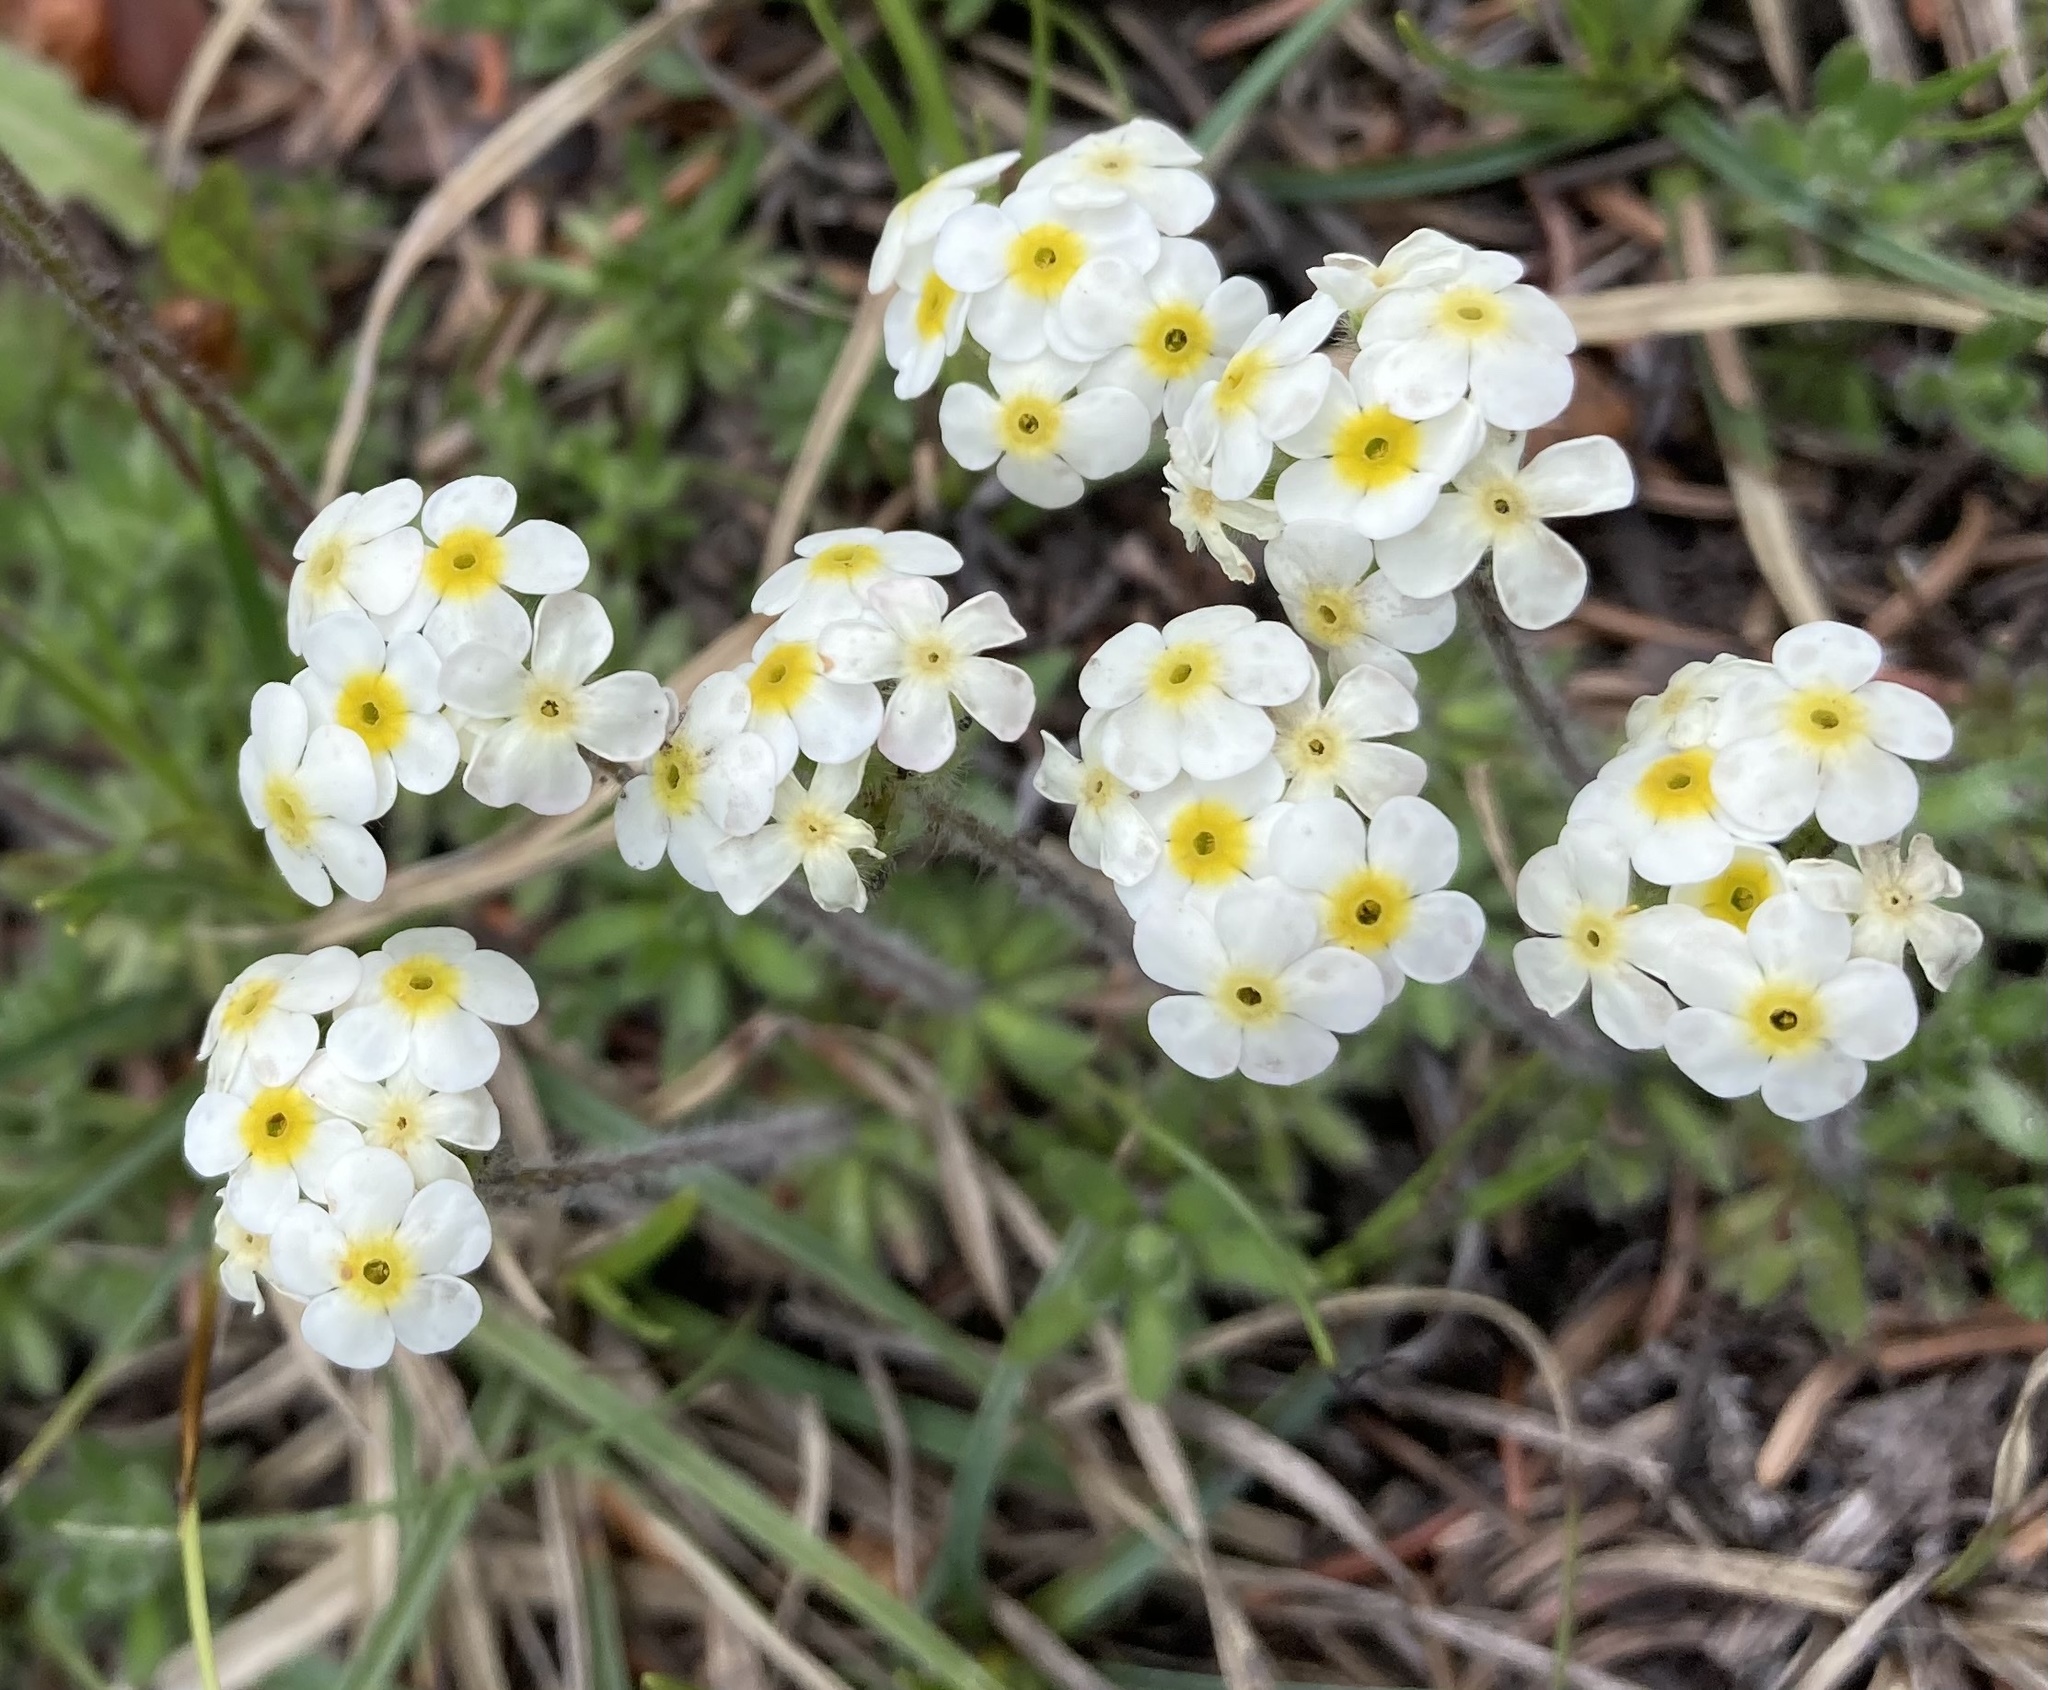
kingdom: Plantae
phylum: Tracheophyta
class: Magnoliopsida
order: Ericales
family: Primulaceae
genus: Androsace
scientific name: Androsace chamaejasme
